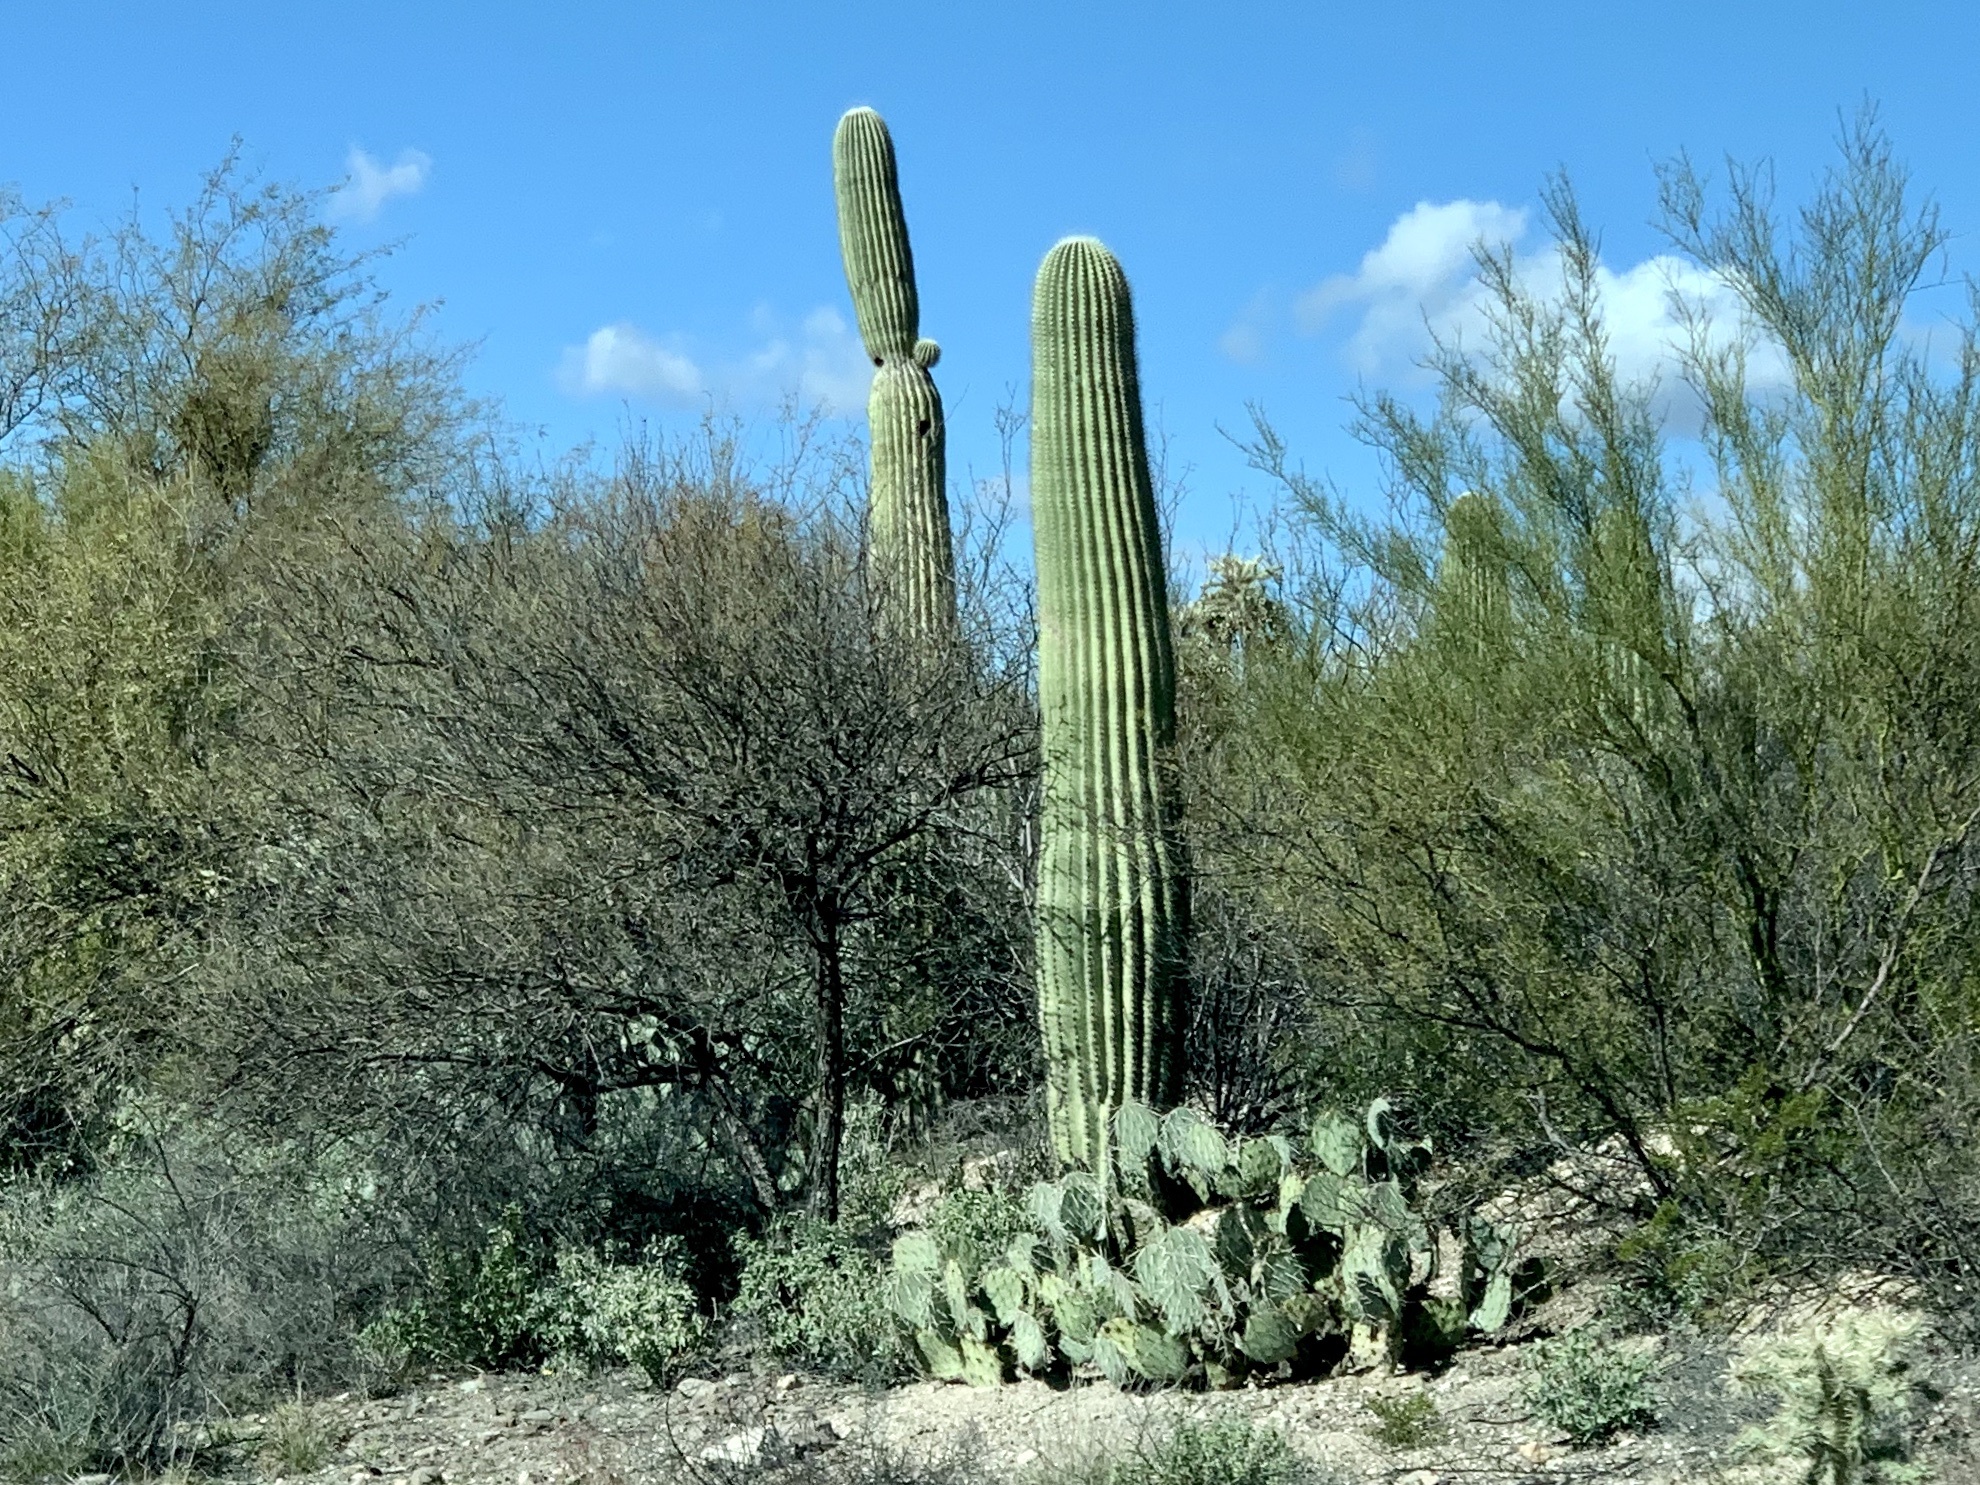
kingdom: Plantae
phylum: Tracheophyta
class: Magnoliopsida
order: Caryophyllales
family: Cactaceae
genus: Carnegiea
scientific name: Carnegiea gigantea
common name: Saguaro
